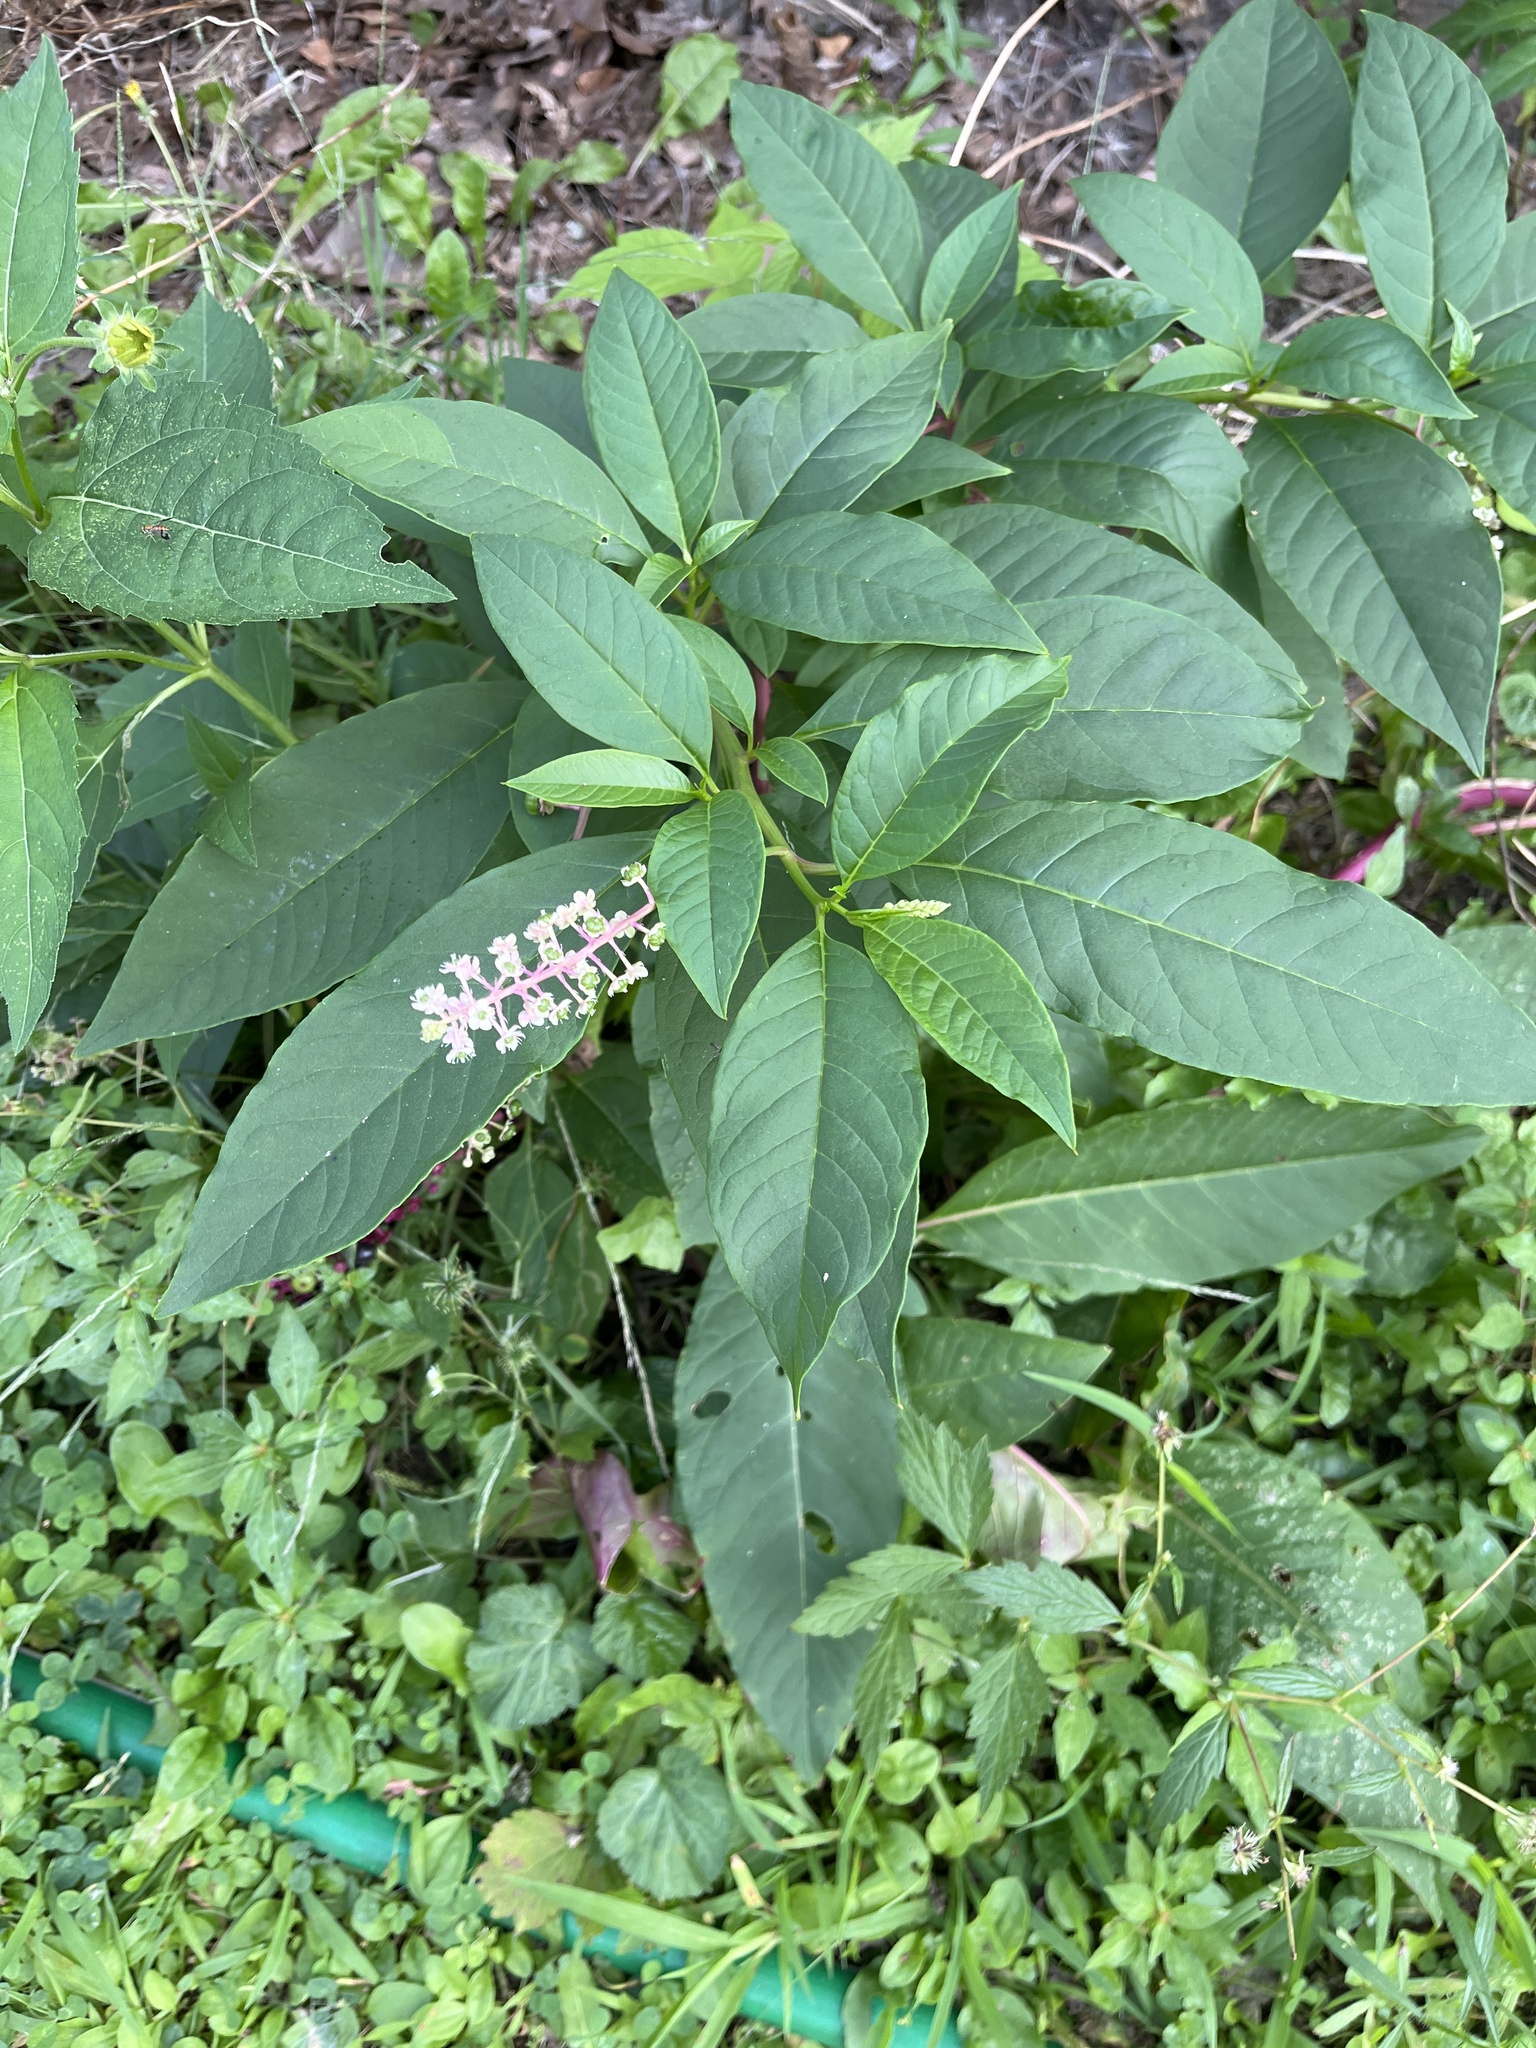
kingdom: Plantae
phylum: Tracheophyta
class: Magnoliopsida
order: Caryophyllales
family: Phytolaccaceae
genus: Phytolacca
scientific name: Phytolacca americana
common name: American pokeweed
